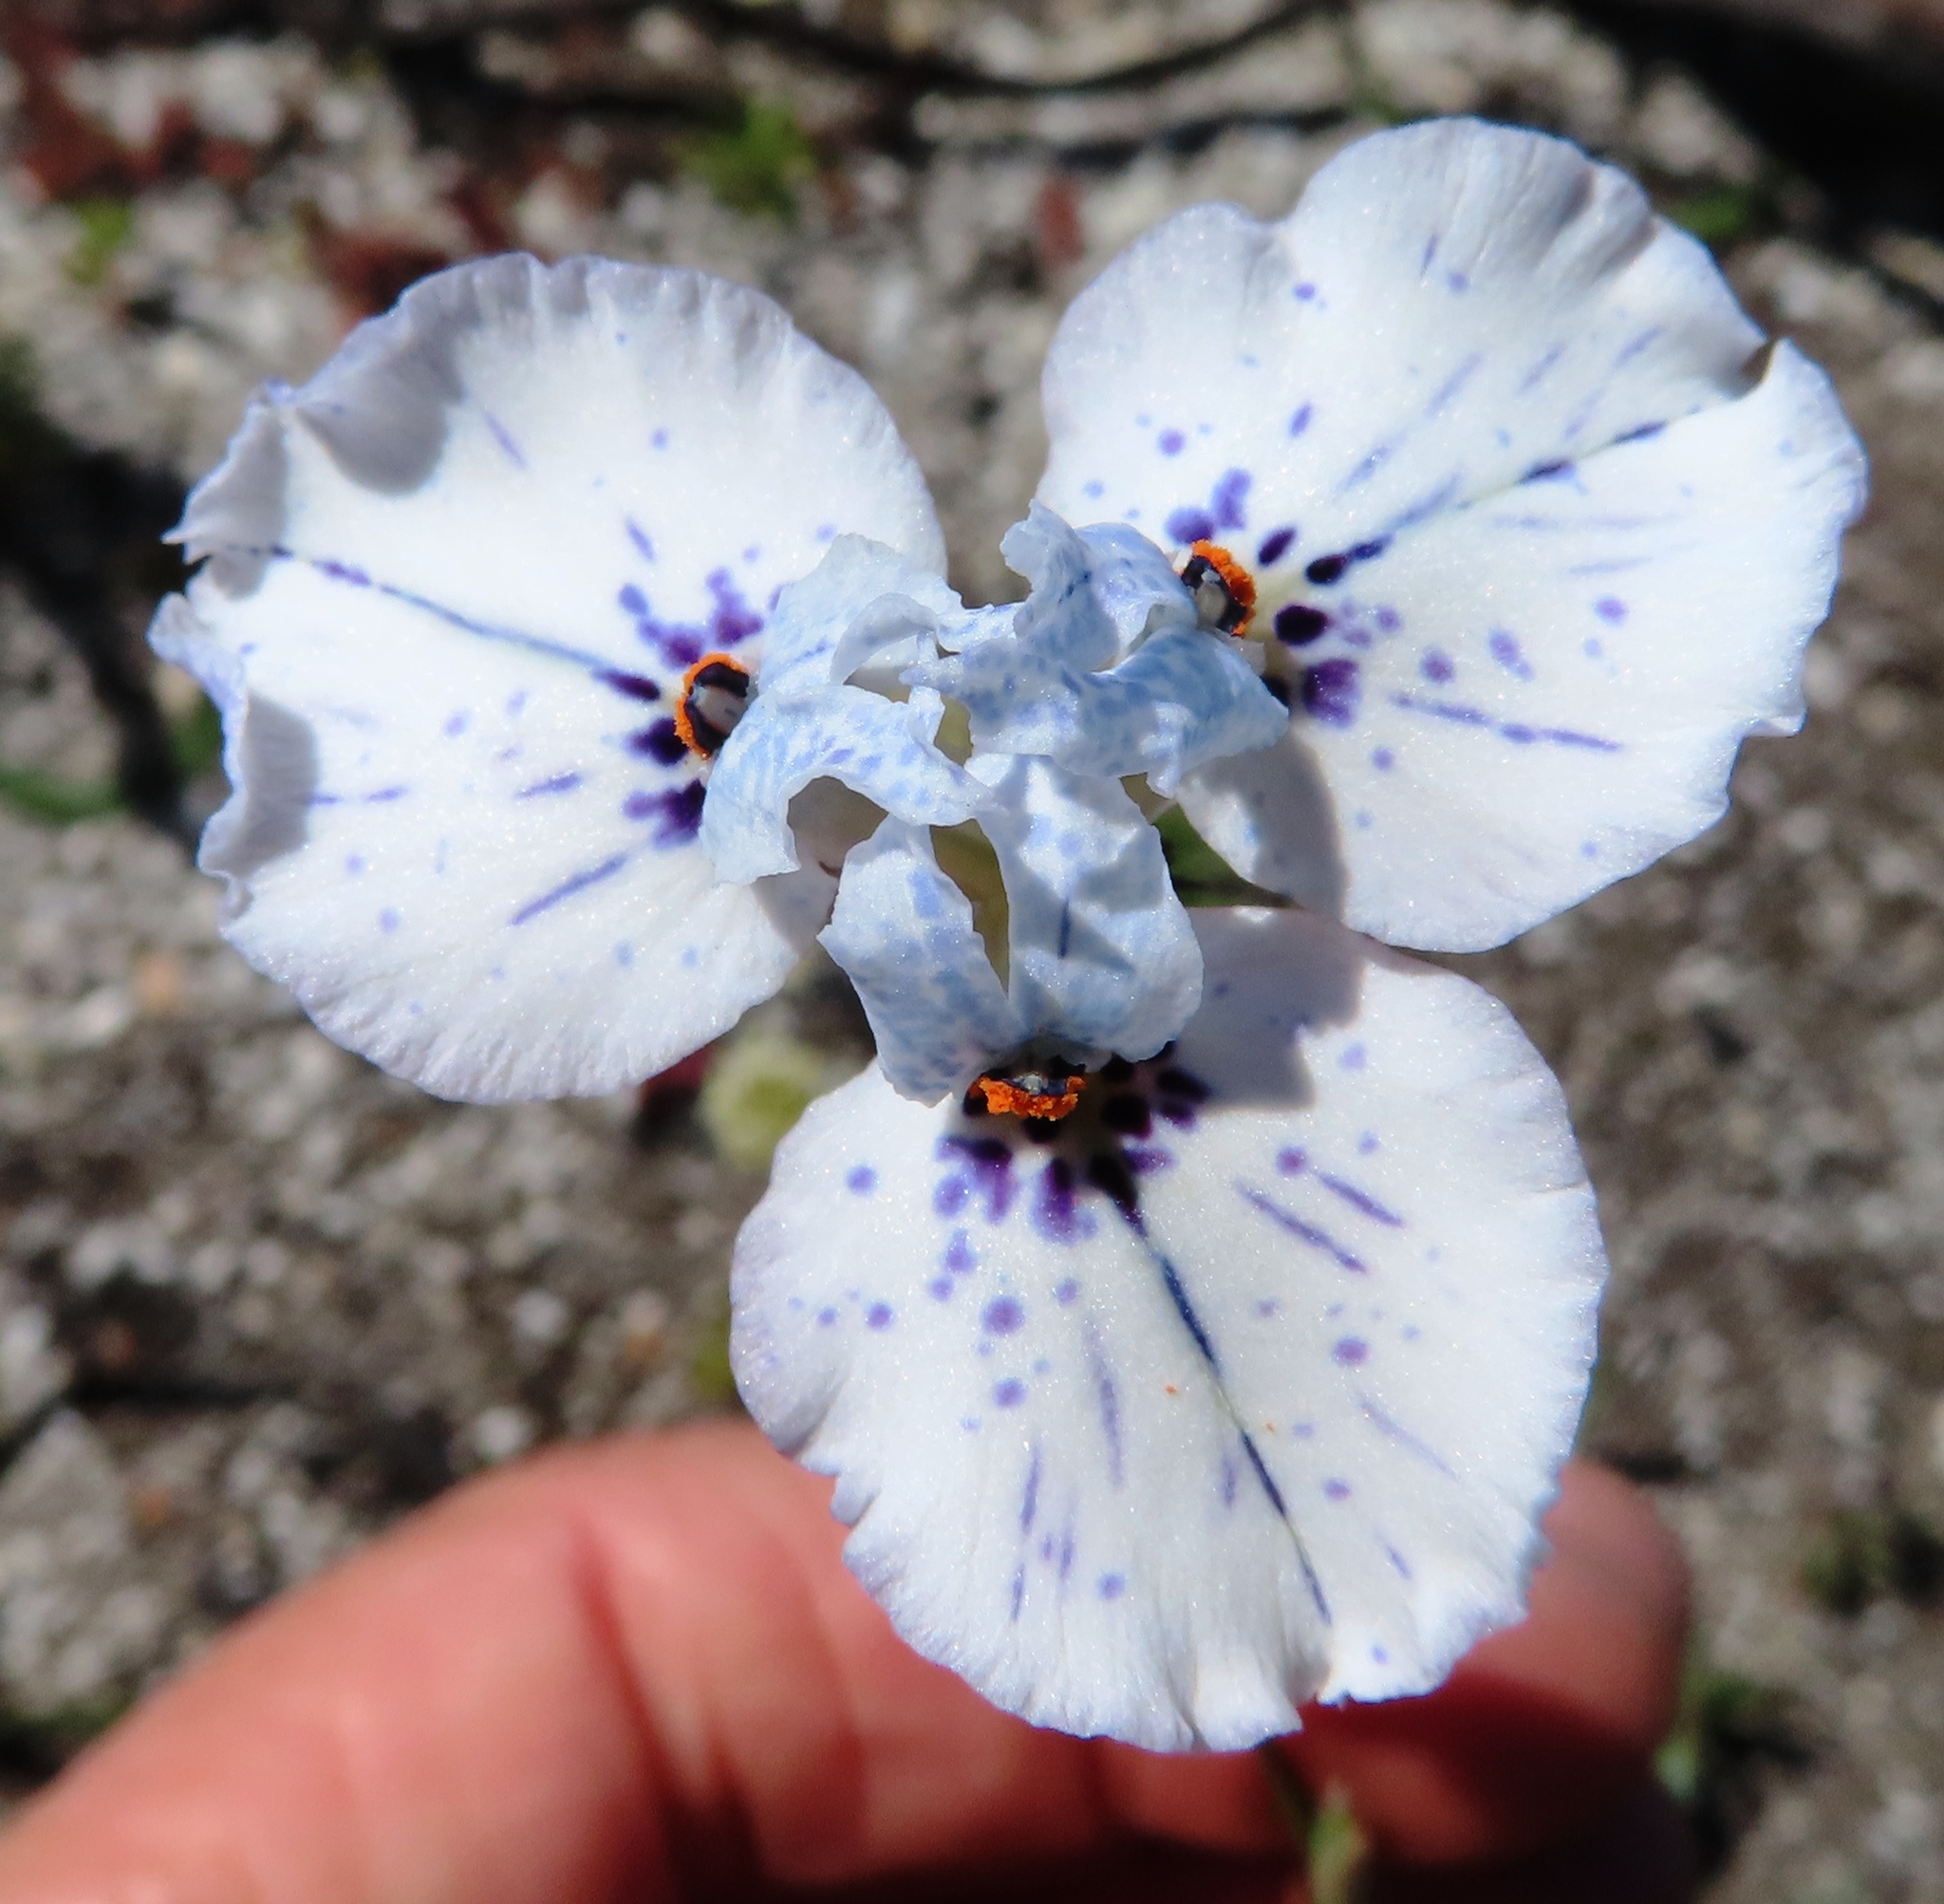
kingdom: Plantae
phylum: Tracheophyta
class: Liliopsida
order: Asparagales
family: Iridaceae
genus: Moraea
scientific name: Moraea barnardii
